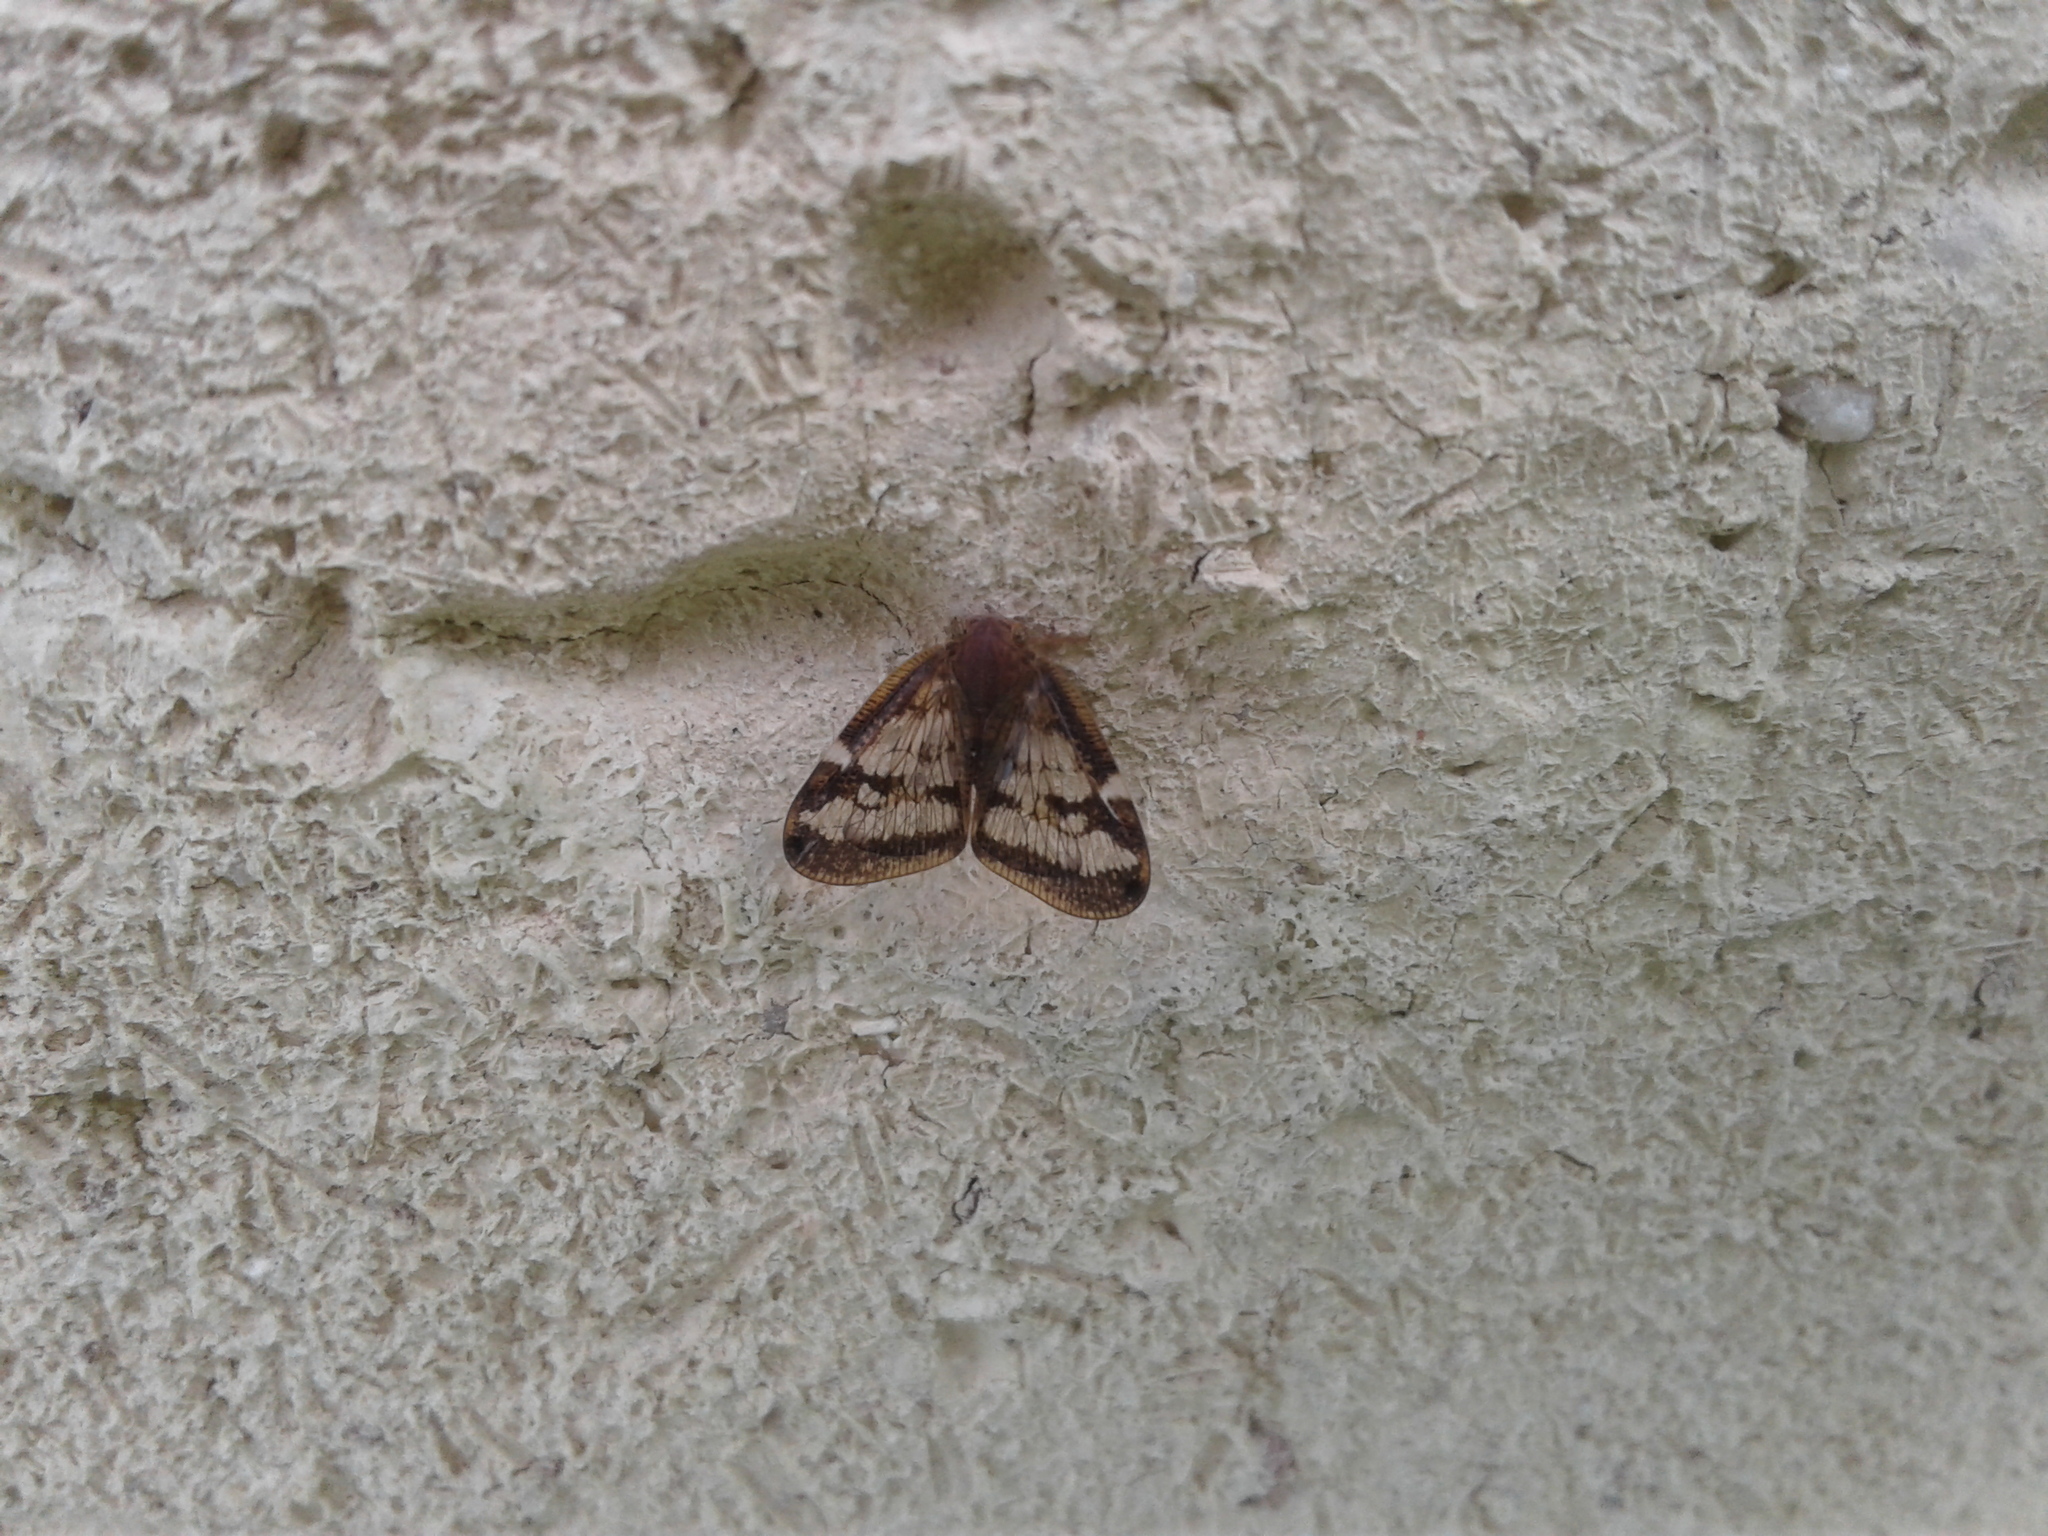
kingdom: Animalia
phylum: Arthropoda
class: Insecta
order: Hemiptera
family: Ricaniidae
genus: Scolypopa
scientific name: Scolypopa australis
